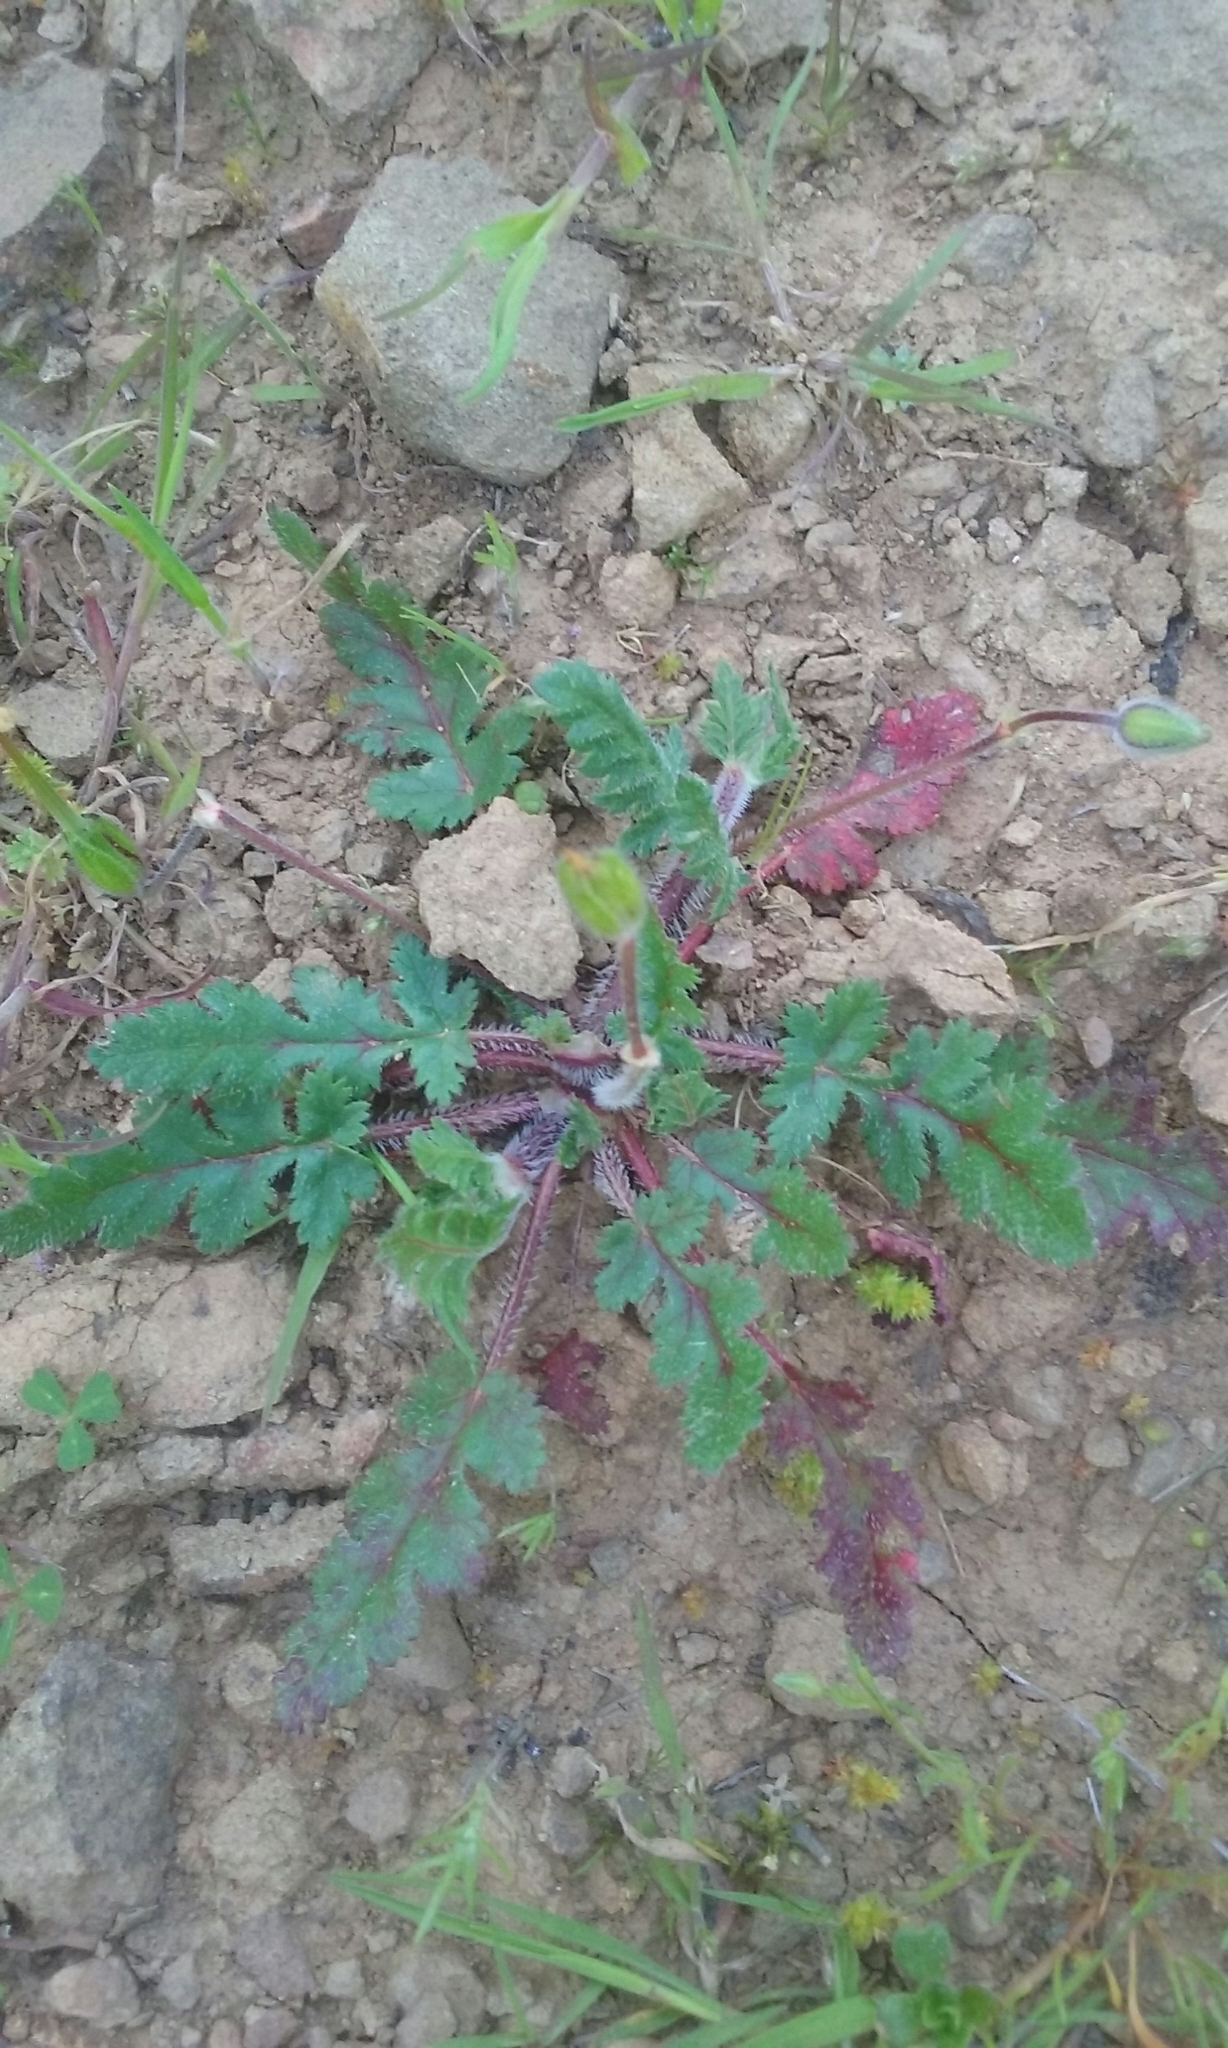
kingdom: Plantae
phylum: Tracheophyta
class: Magnoliopsida
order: Geraniales
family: Geraniaceae
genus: Erodium
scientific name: Erodium botrys
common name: Mediterranean stork's-bill
